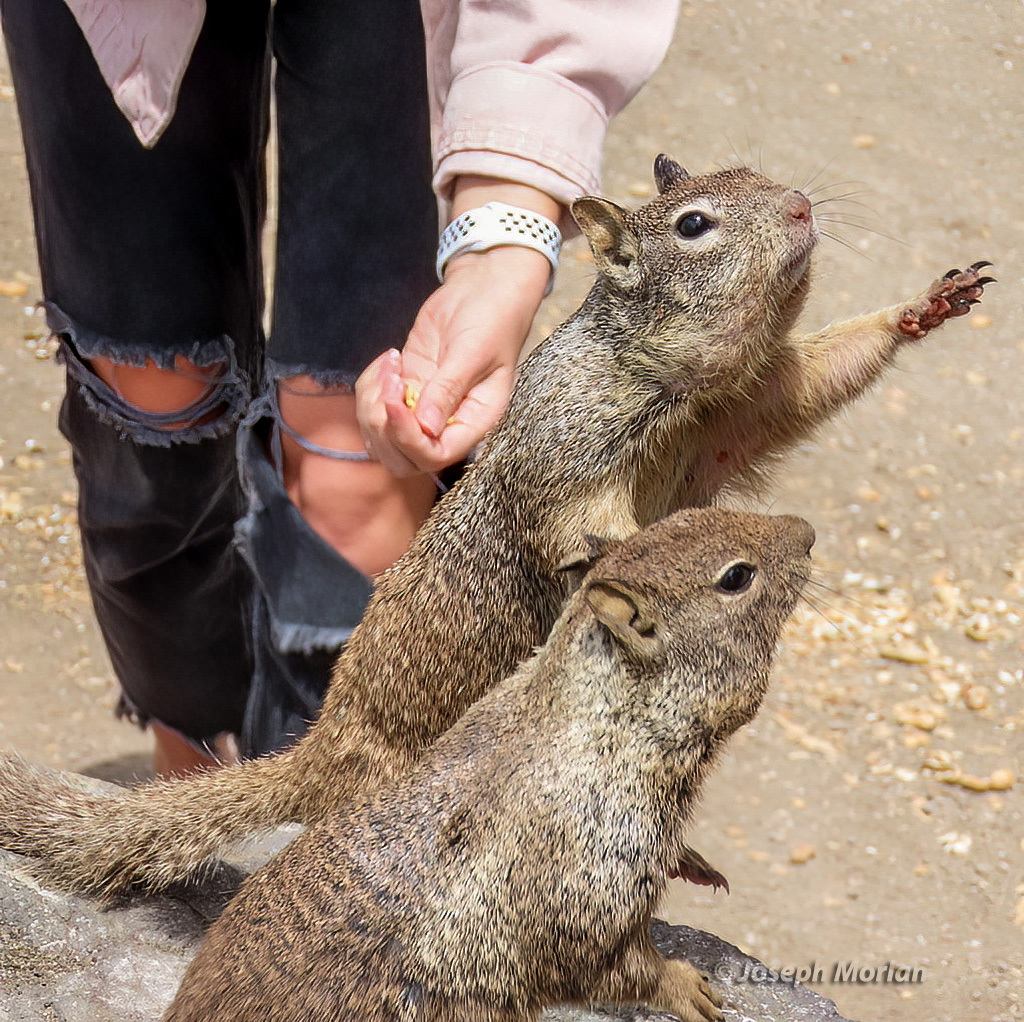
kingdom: Animalia
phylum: Chordata
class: Mammalia
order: Rodentia
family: Sciuridae
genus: Otospermophilus
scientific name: Otospermophilus beecheyi
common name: California ground squirrel
